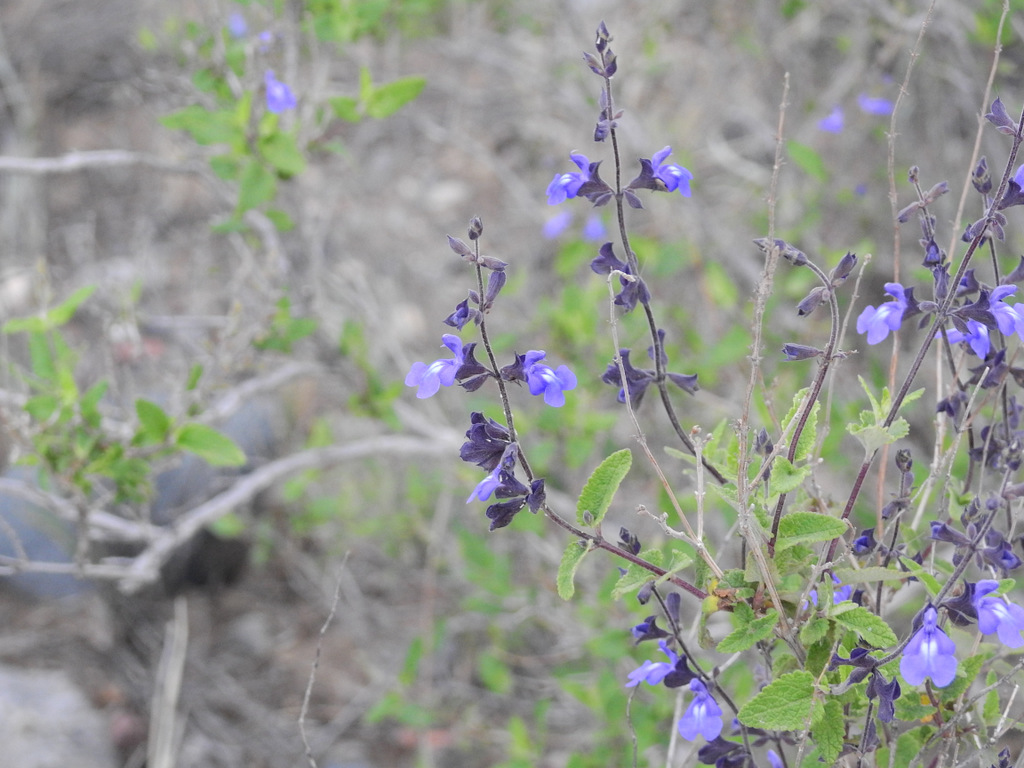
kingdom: Plantae
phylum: Tracheophyta
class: Magnoliopsida
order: Lamiales
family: Lamiaceae
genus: Salvia
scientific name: Salvia cuspidata
